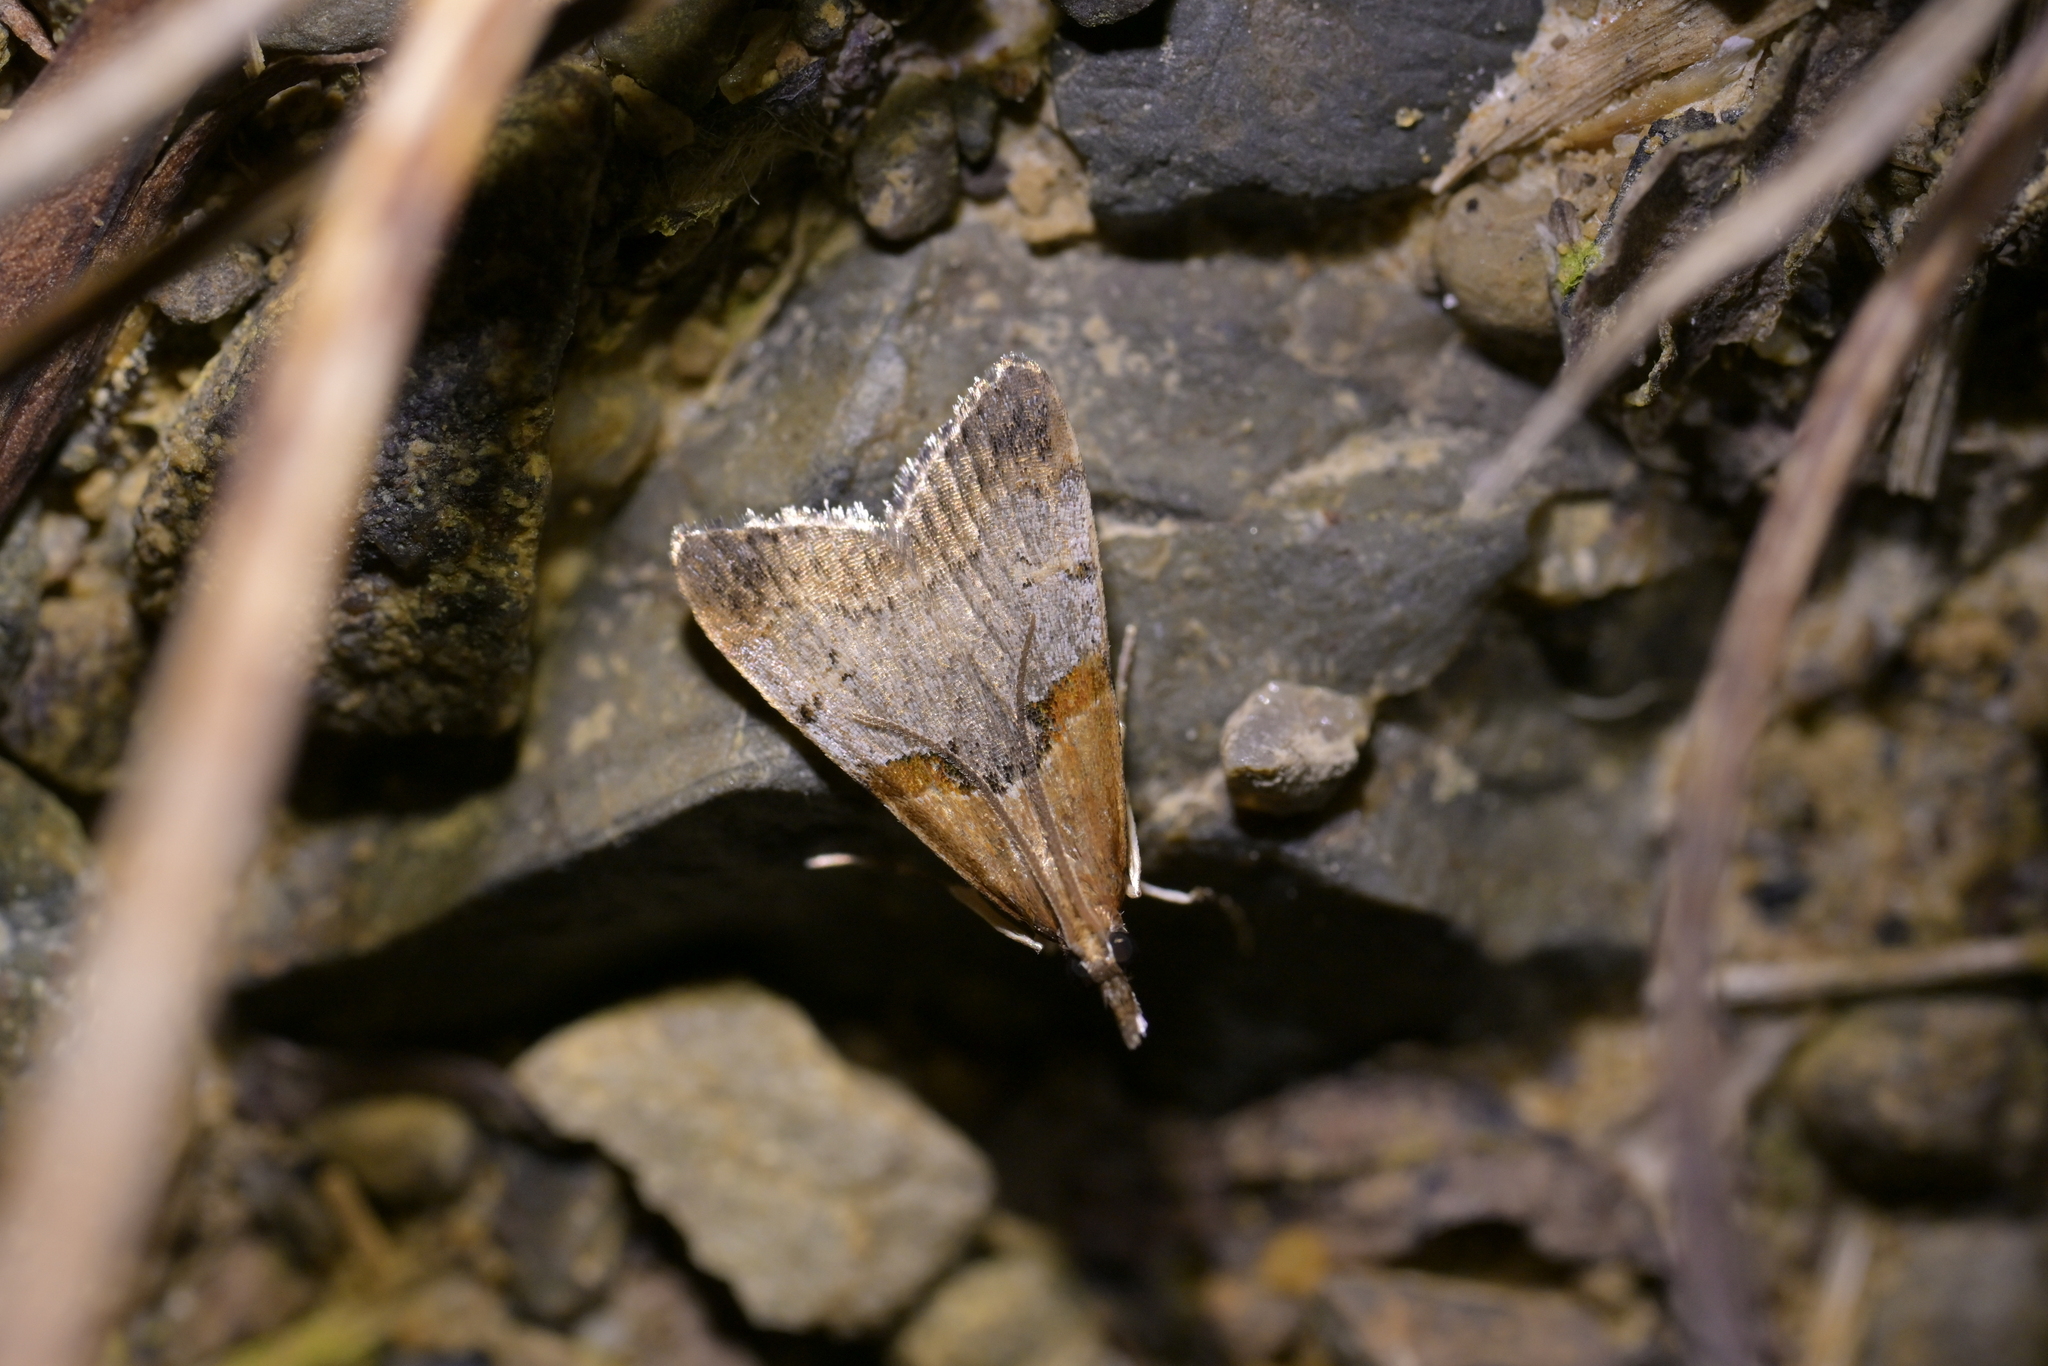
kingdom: Animalia
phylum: Arthropoda
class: Insecta
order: Lepidoptera
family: Crambidae
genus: Antiscopa
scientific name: Antiscopa epicomia
